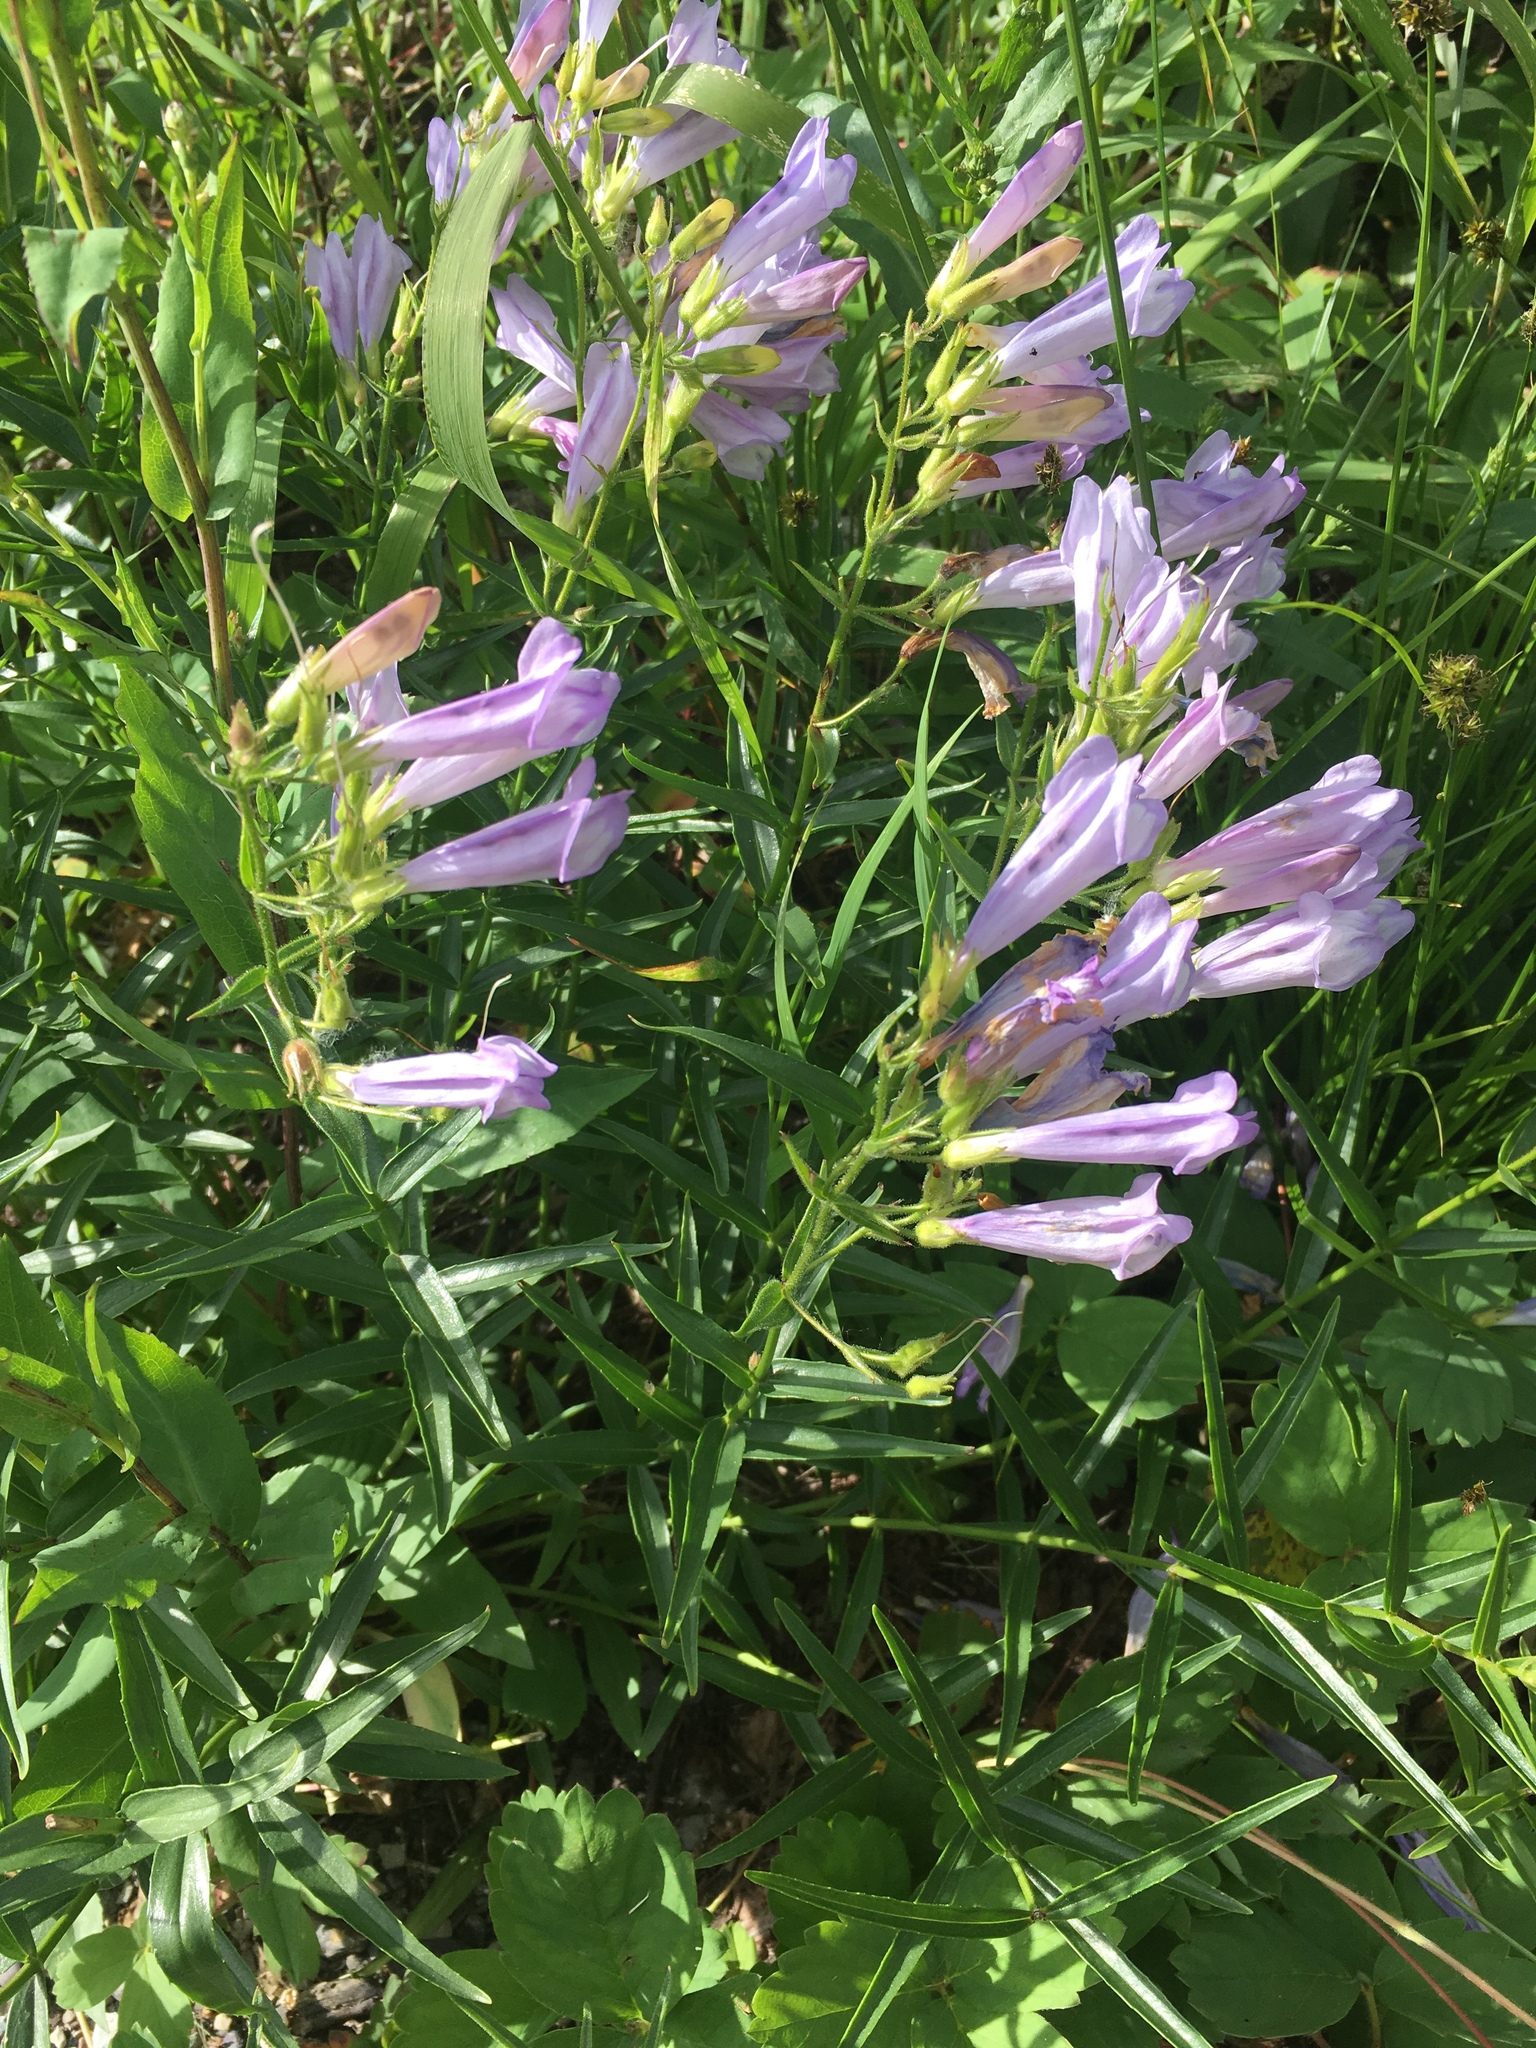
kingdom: Plantae
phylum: Tracheophyta
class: Magnoliopsida
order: Lamiales
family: Plantaginaceae
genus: Penstemon
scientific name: Penstemon lyalli
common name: Lyall's beardtongue
